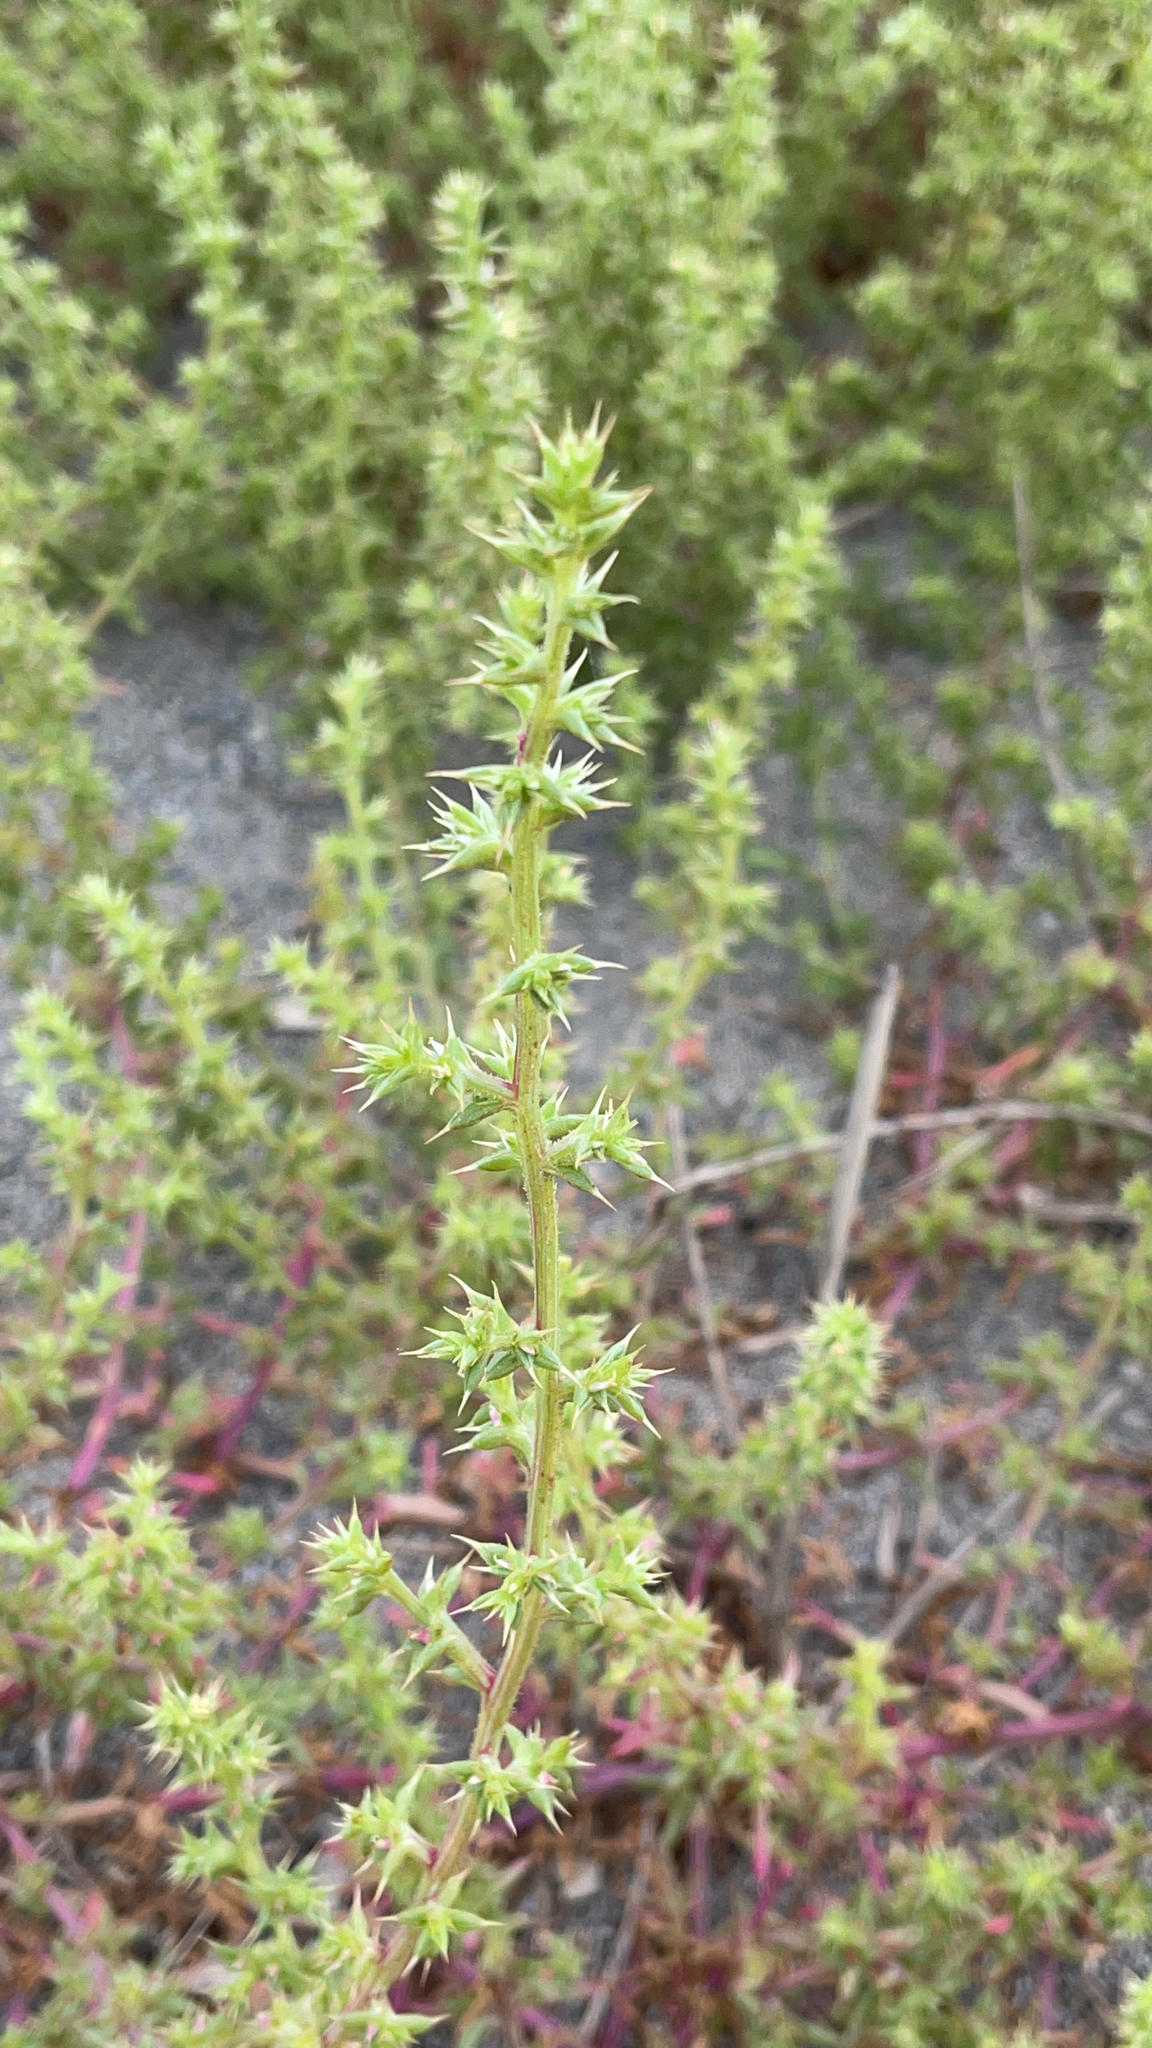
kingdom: Plantae
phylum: Tracheophyta
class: Magnoliopsida
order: Caryophyllales
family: Amaranthaceae
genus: Salsola
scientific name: Salsola kali
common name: Saltwort
